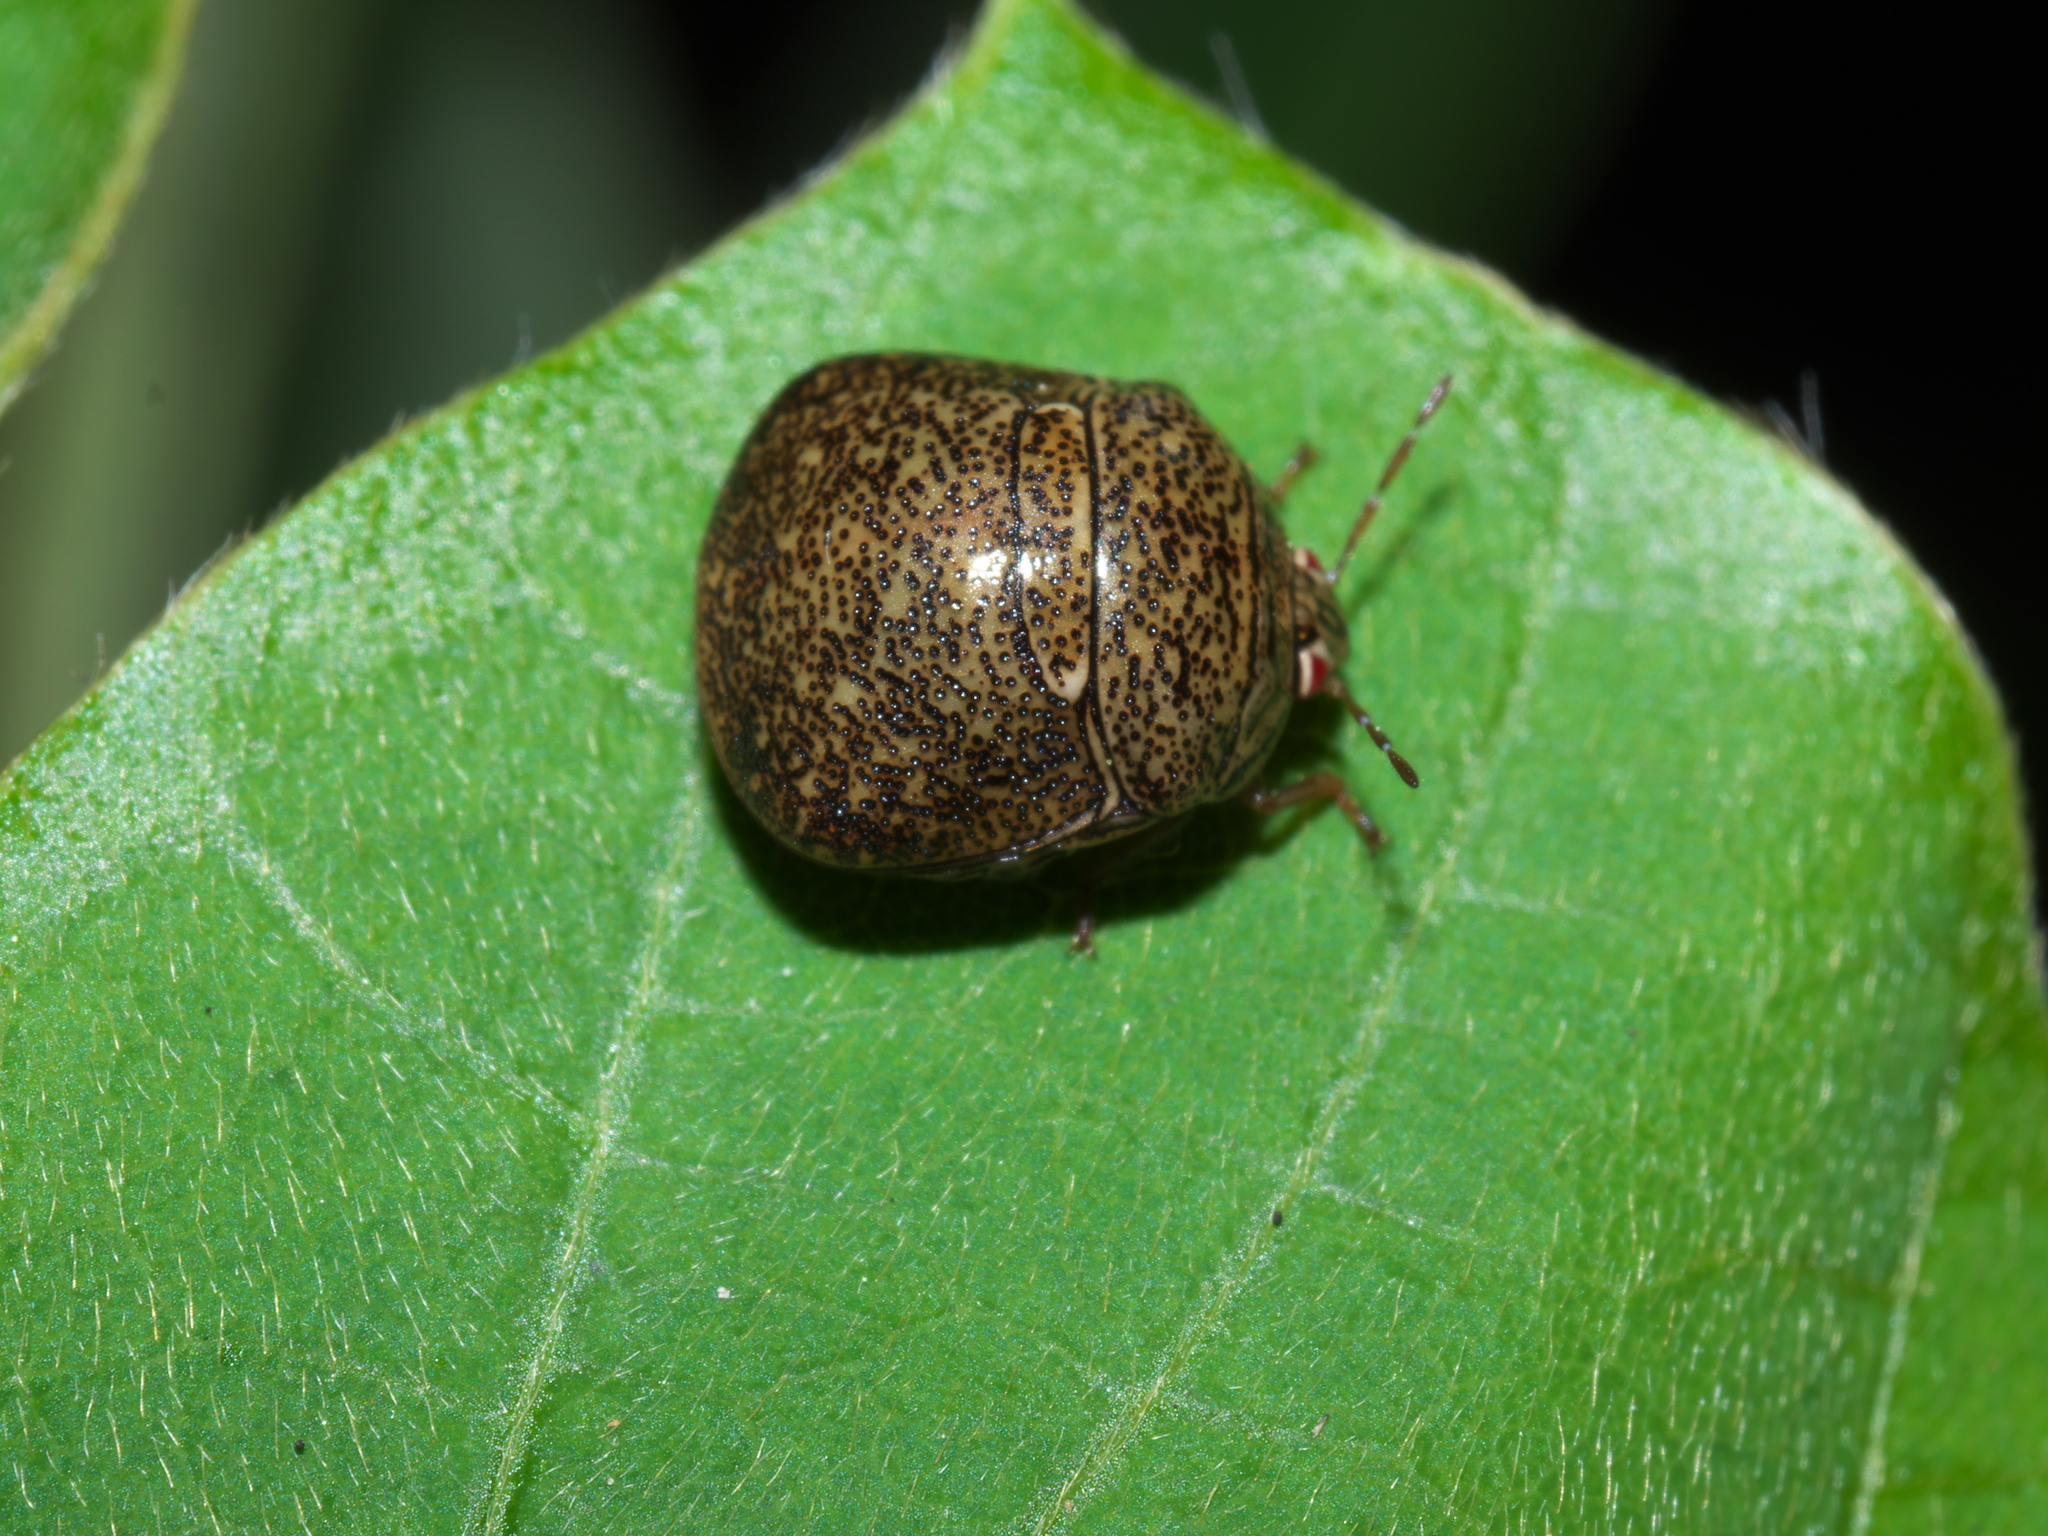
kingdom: Animalia
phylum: Arthropoda
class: Insecta
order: Hemiptera
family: Plataspidae
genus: Megacopta
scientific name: Megacopta cribraria
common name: Bean plataspid
